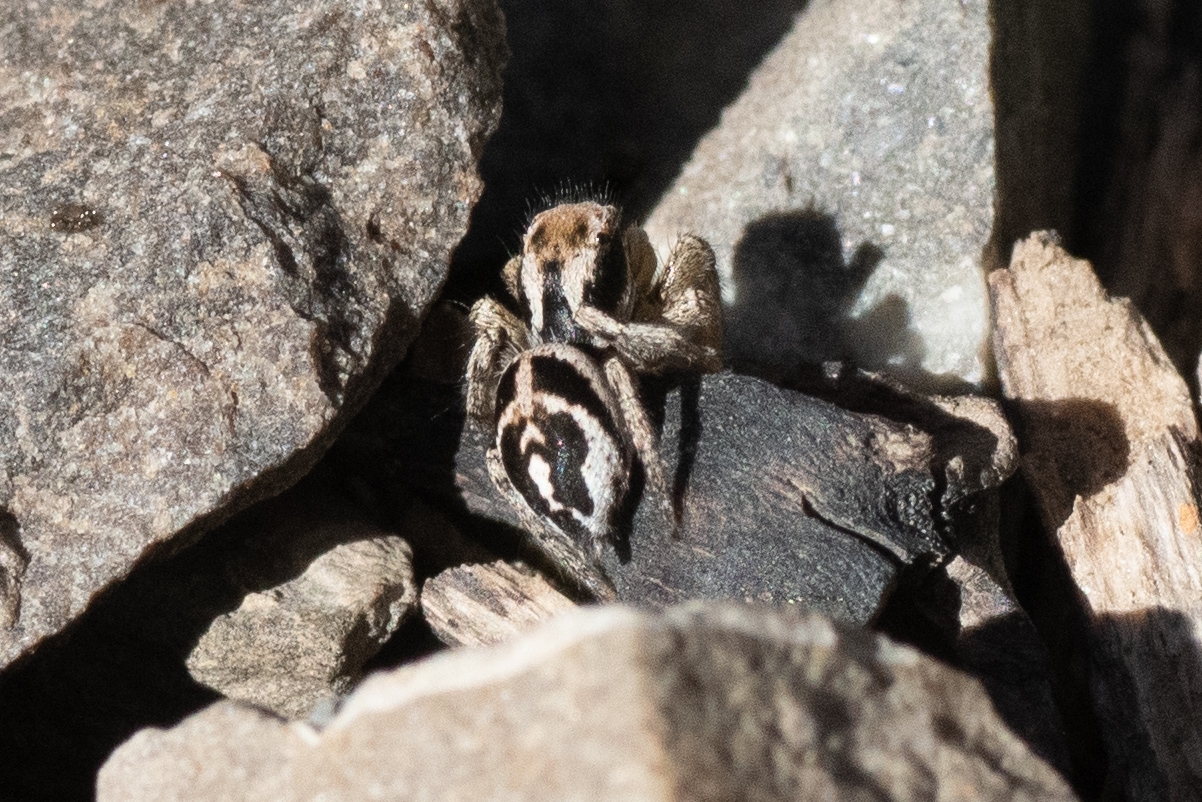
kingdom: Animalia
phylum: Arthropoda
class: Arachnida
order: Araneae
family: Salticidae
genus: Habronattus
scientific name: Habronattus festus
